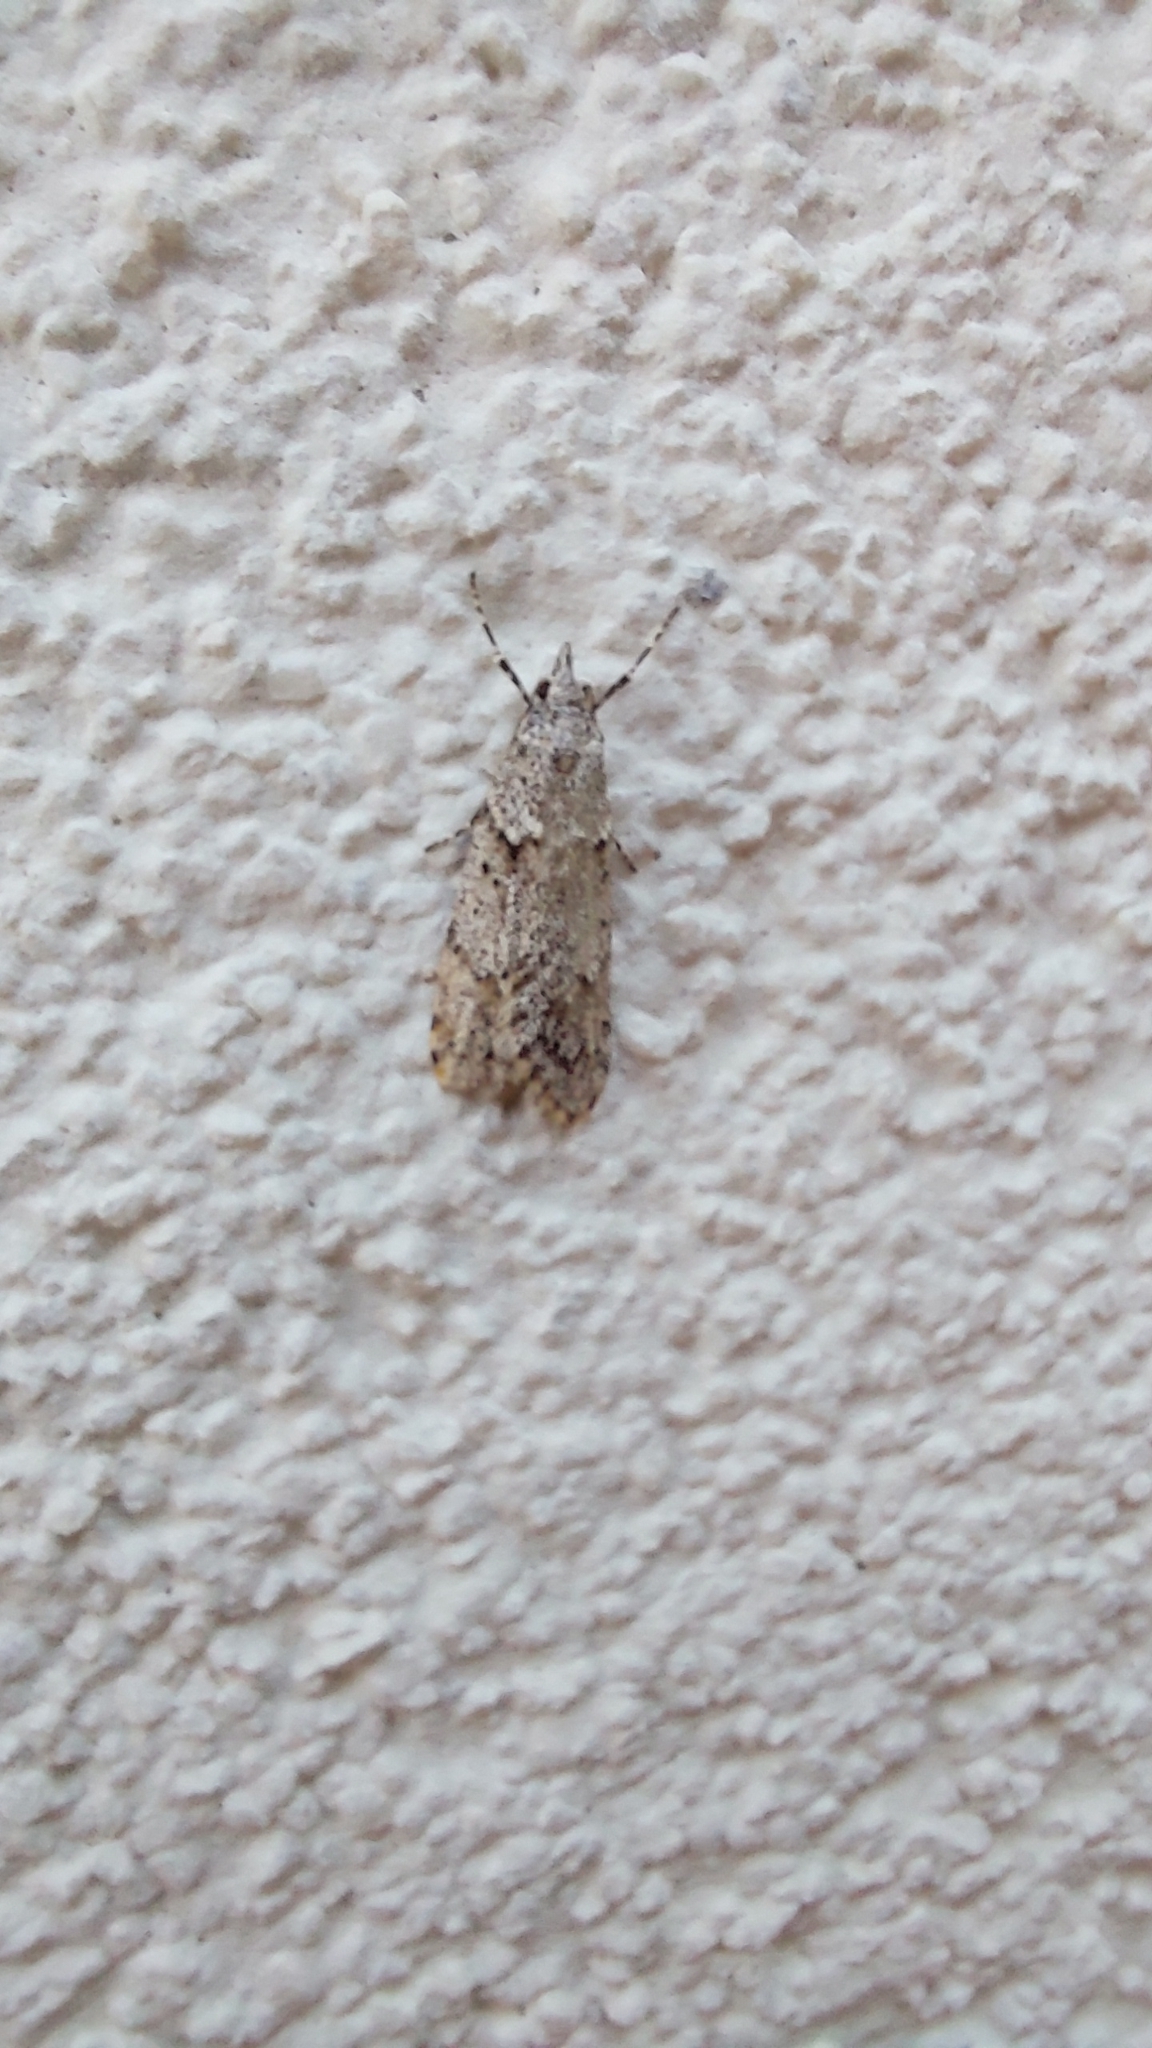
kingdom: Animalia
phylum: Arthropoda
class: Insecta
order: Lepidoptera
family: Lypusidae
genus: Diurnea
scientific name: Diurnea fagella
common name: March tubic
